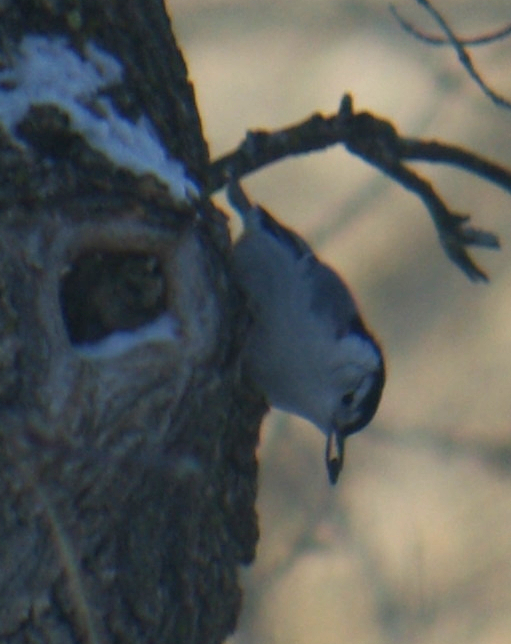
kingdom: Animalia
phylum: Chordata
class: Aves
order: Passeriformes
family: Sittidae
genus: Sitta
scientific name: Sitta carolinensis
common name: White-breasted nuthatch
